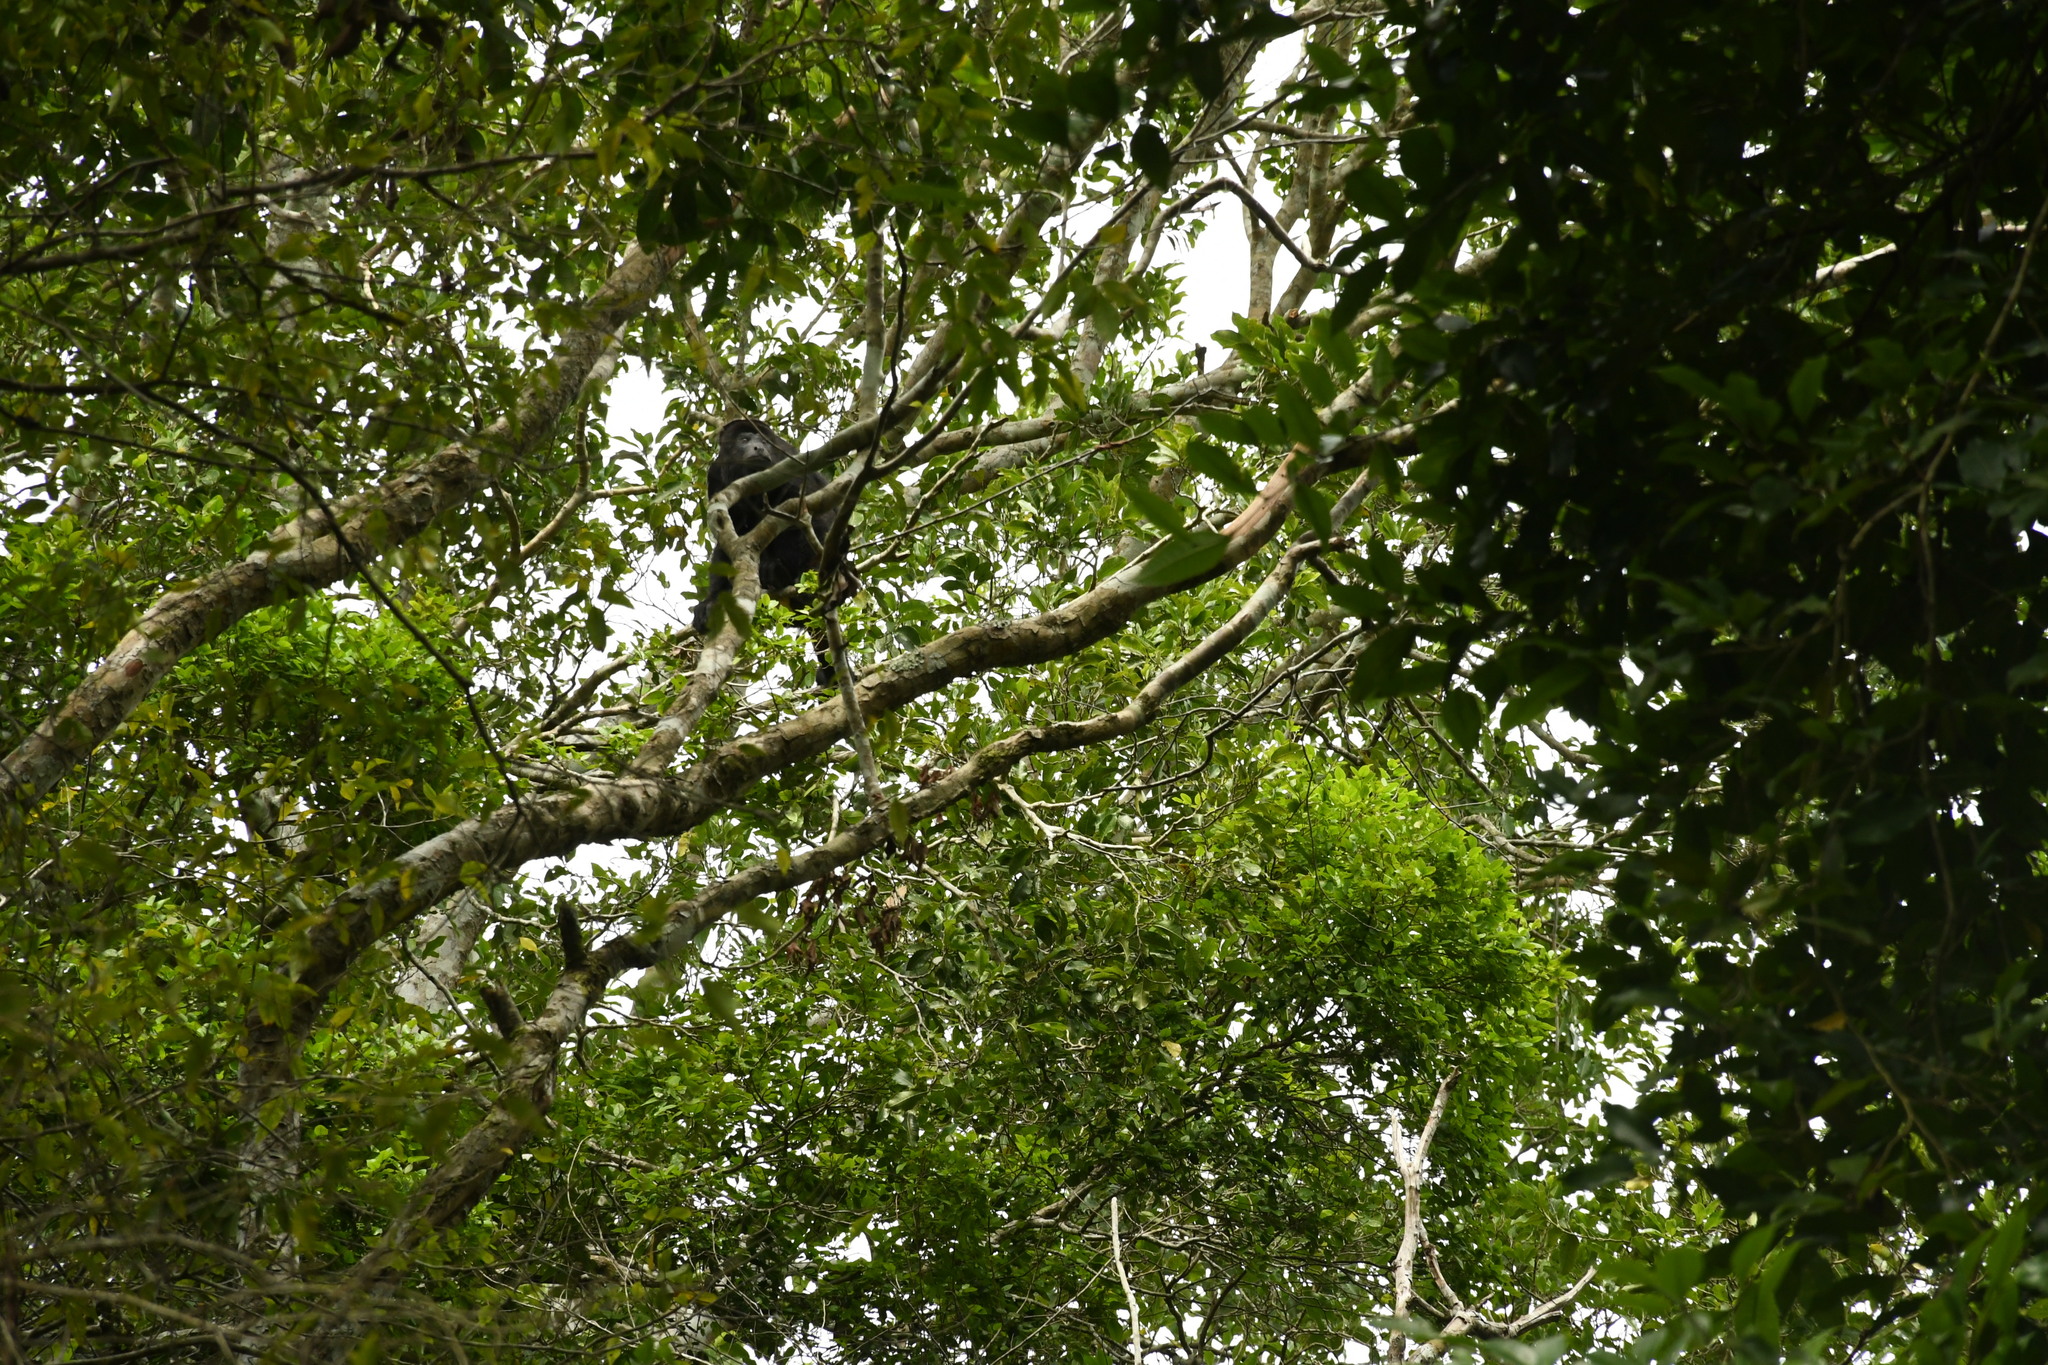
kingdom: Animalia
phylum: Chordata
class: Mammalia
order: Primates
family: Atelidae
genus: Alouatta
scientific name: Alouatta pigra
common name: Guatemalan black howler
